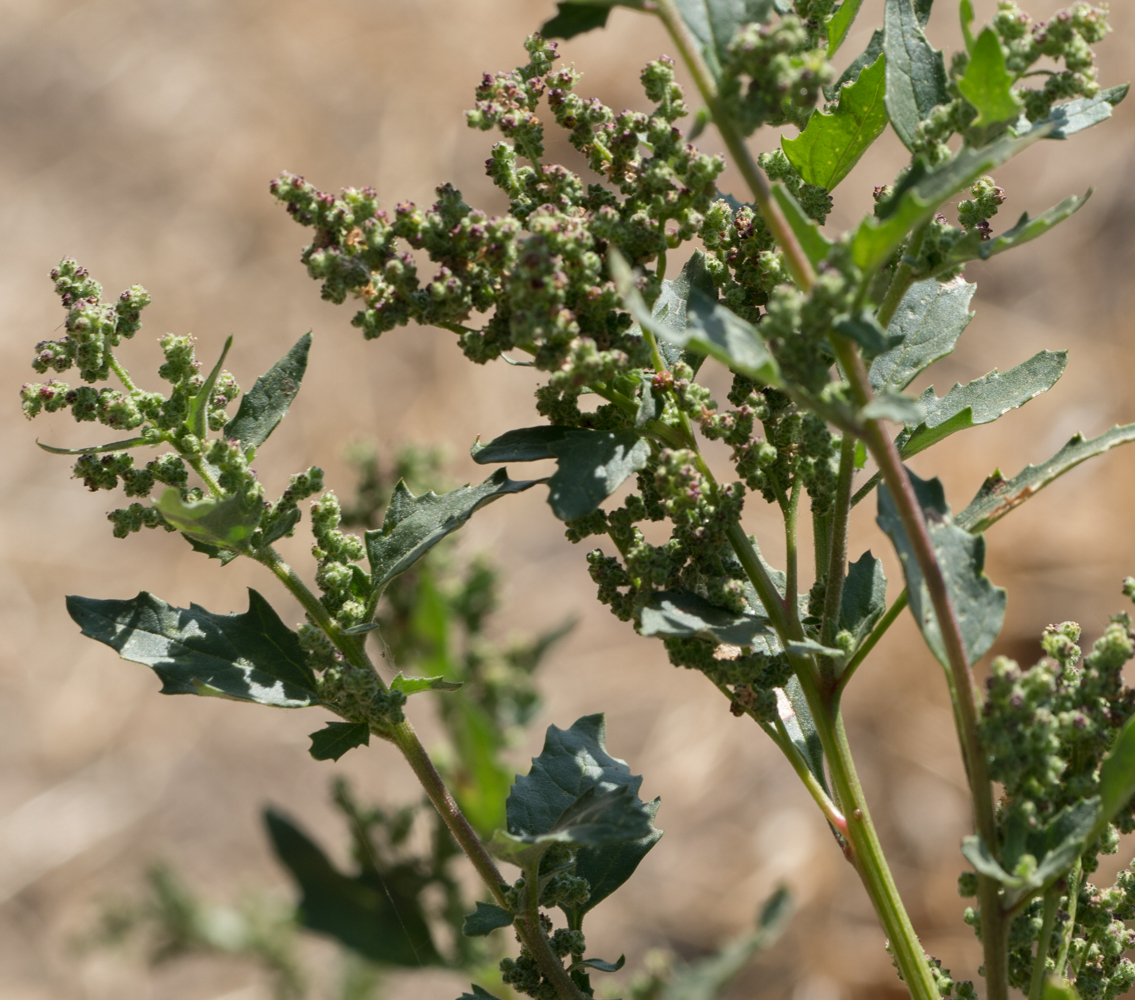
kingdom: Plantae
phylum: Tracheophyta
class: Magnoliopsida
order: Caryophyllales
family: Amaranthaceae
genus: Chenopodiastrum
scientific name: Chenopodiastrum murale
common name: Sowbane
